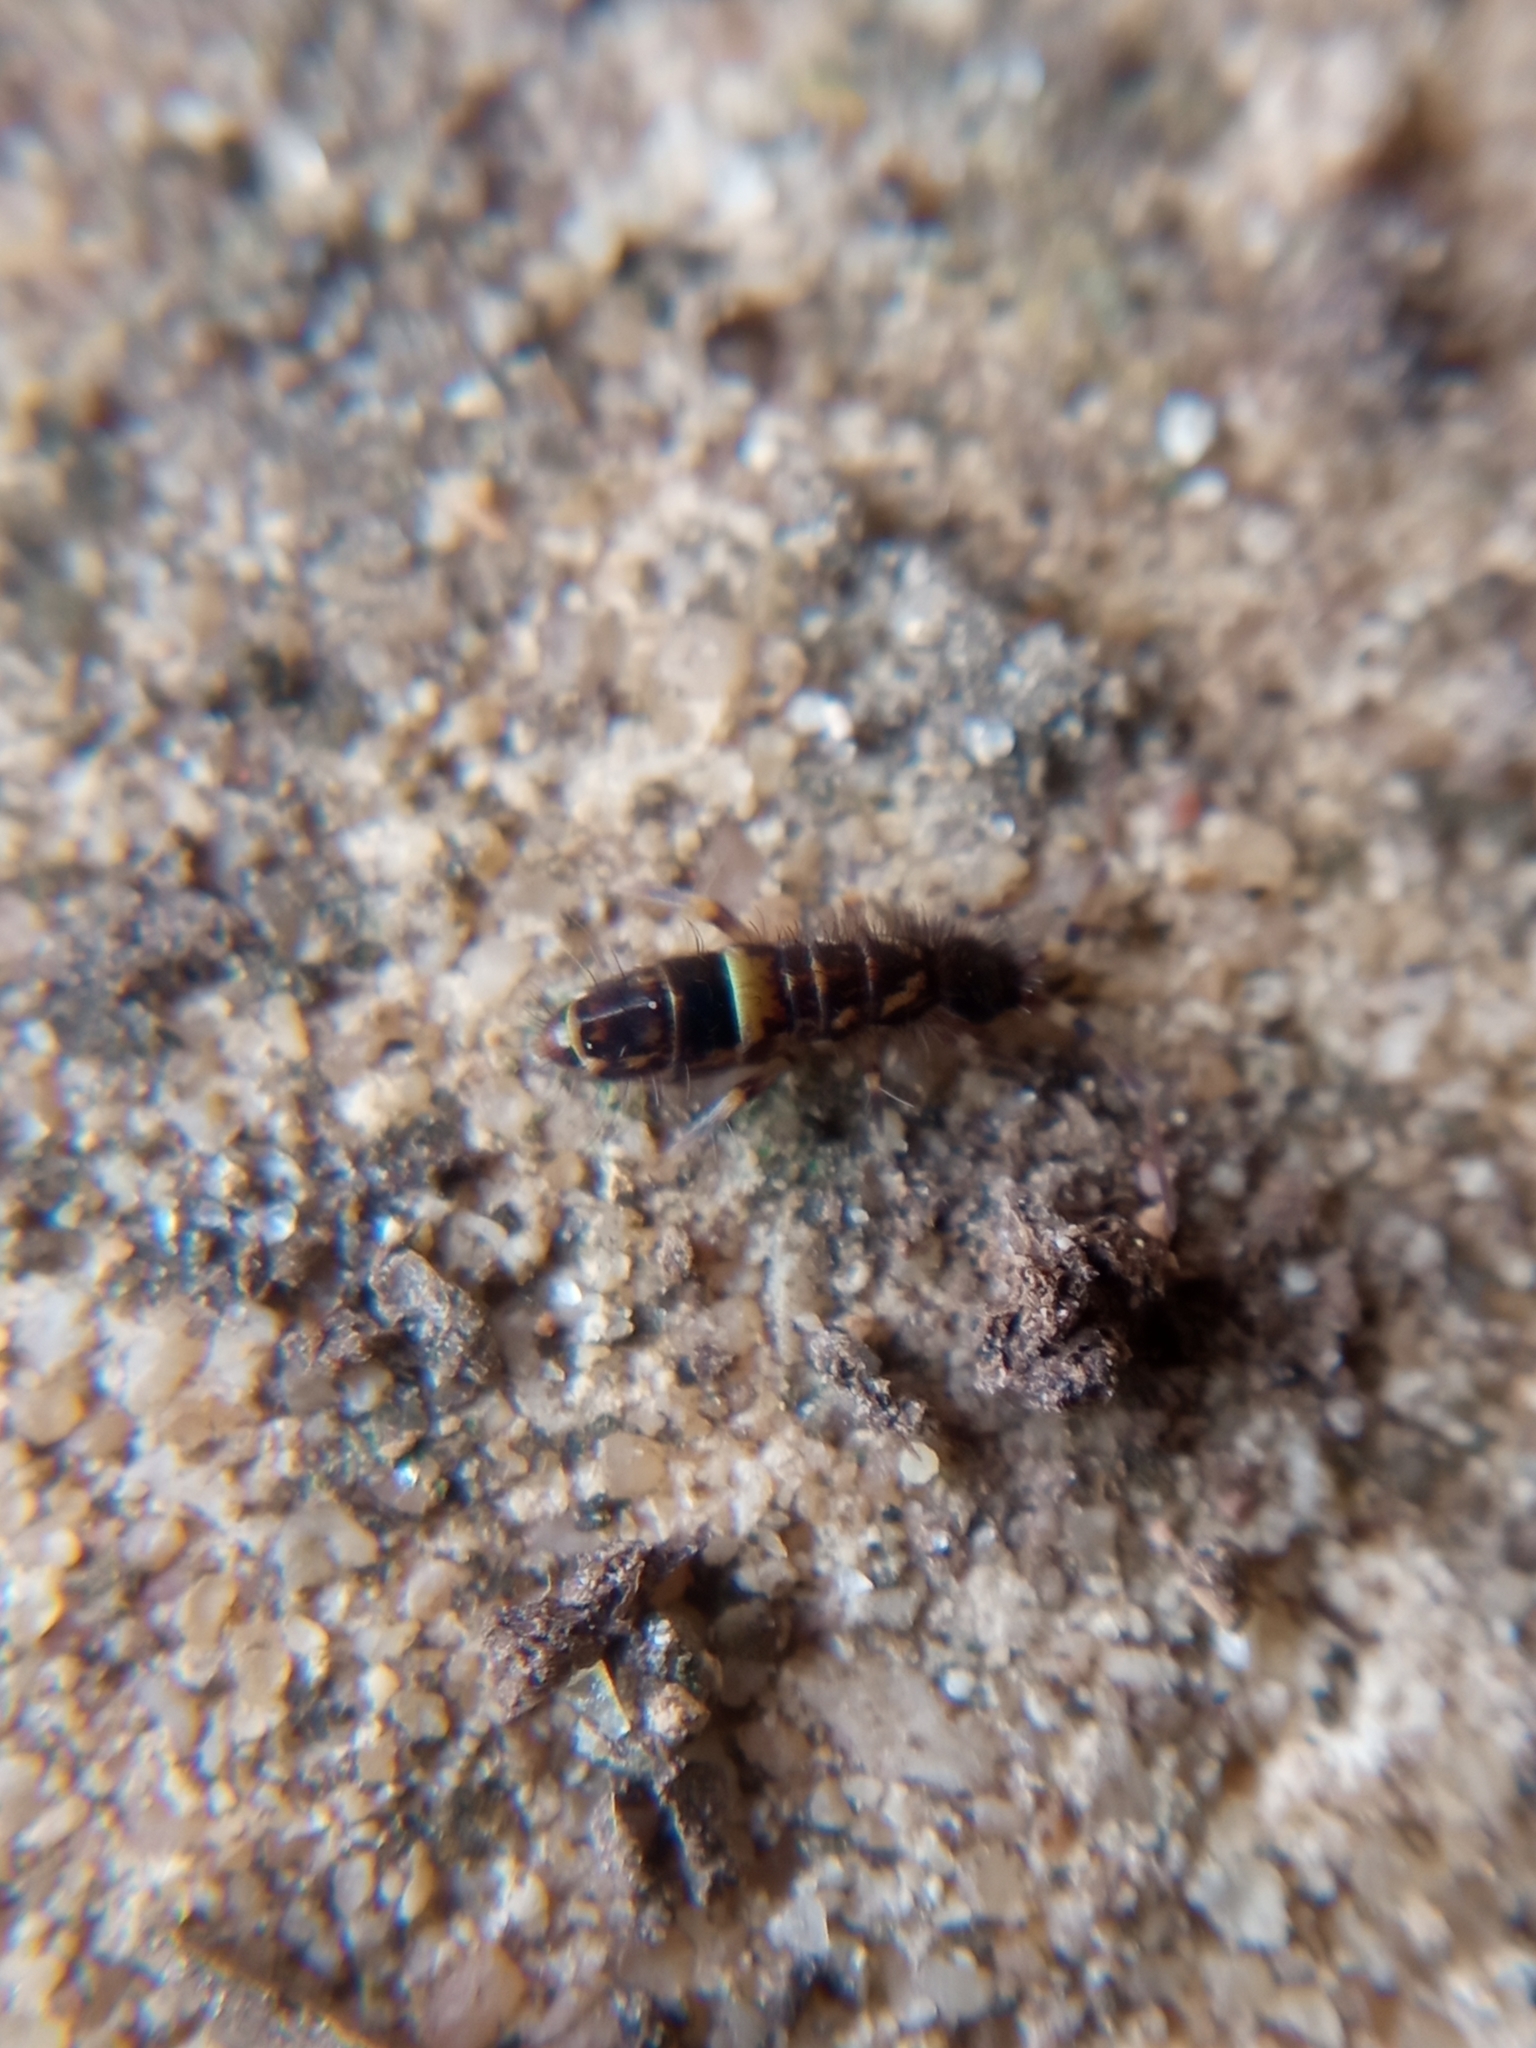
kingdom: Animalia
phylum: Arthropoda
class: Collembola
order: Entomobryomorpha
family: Orchesellidae
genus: Orchesella
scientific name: Orchesella cincta
